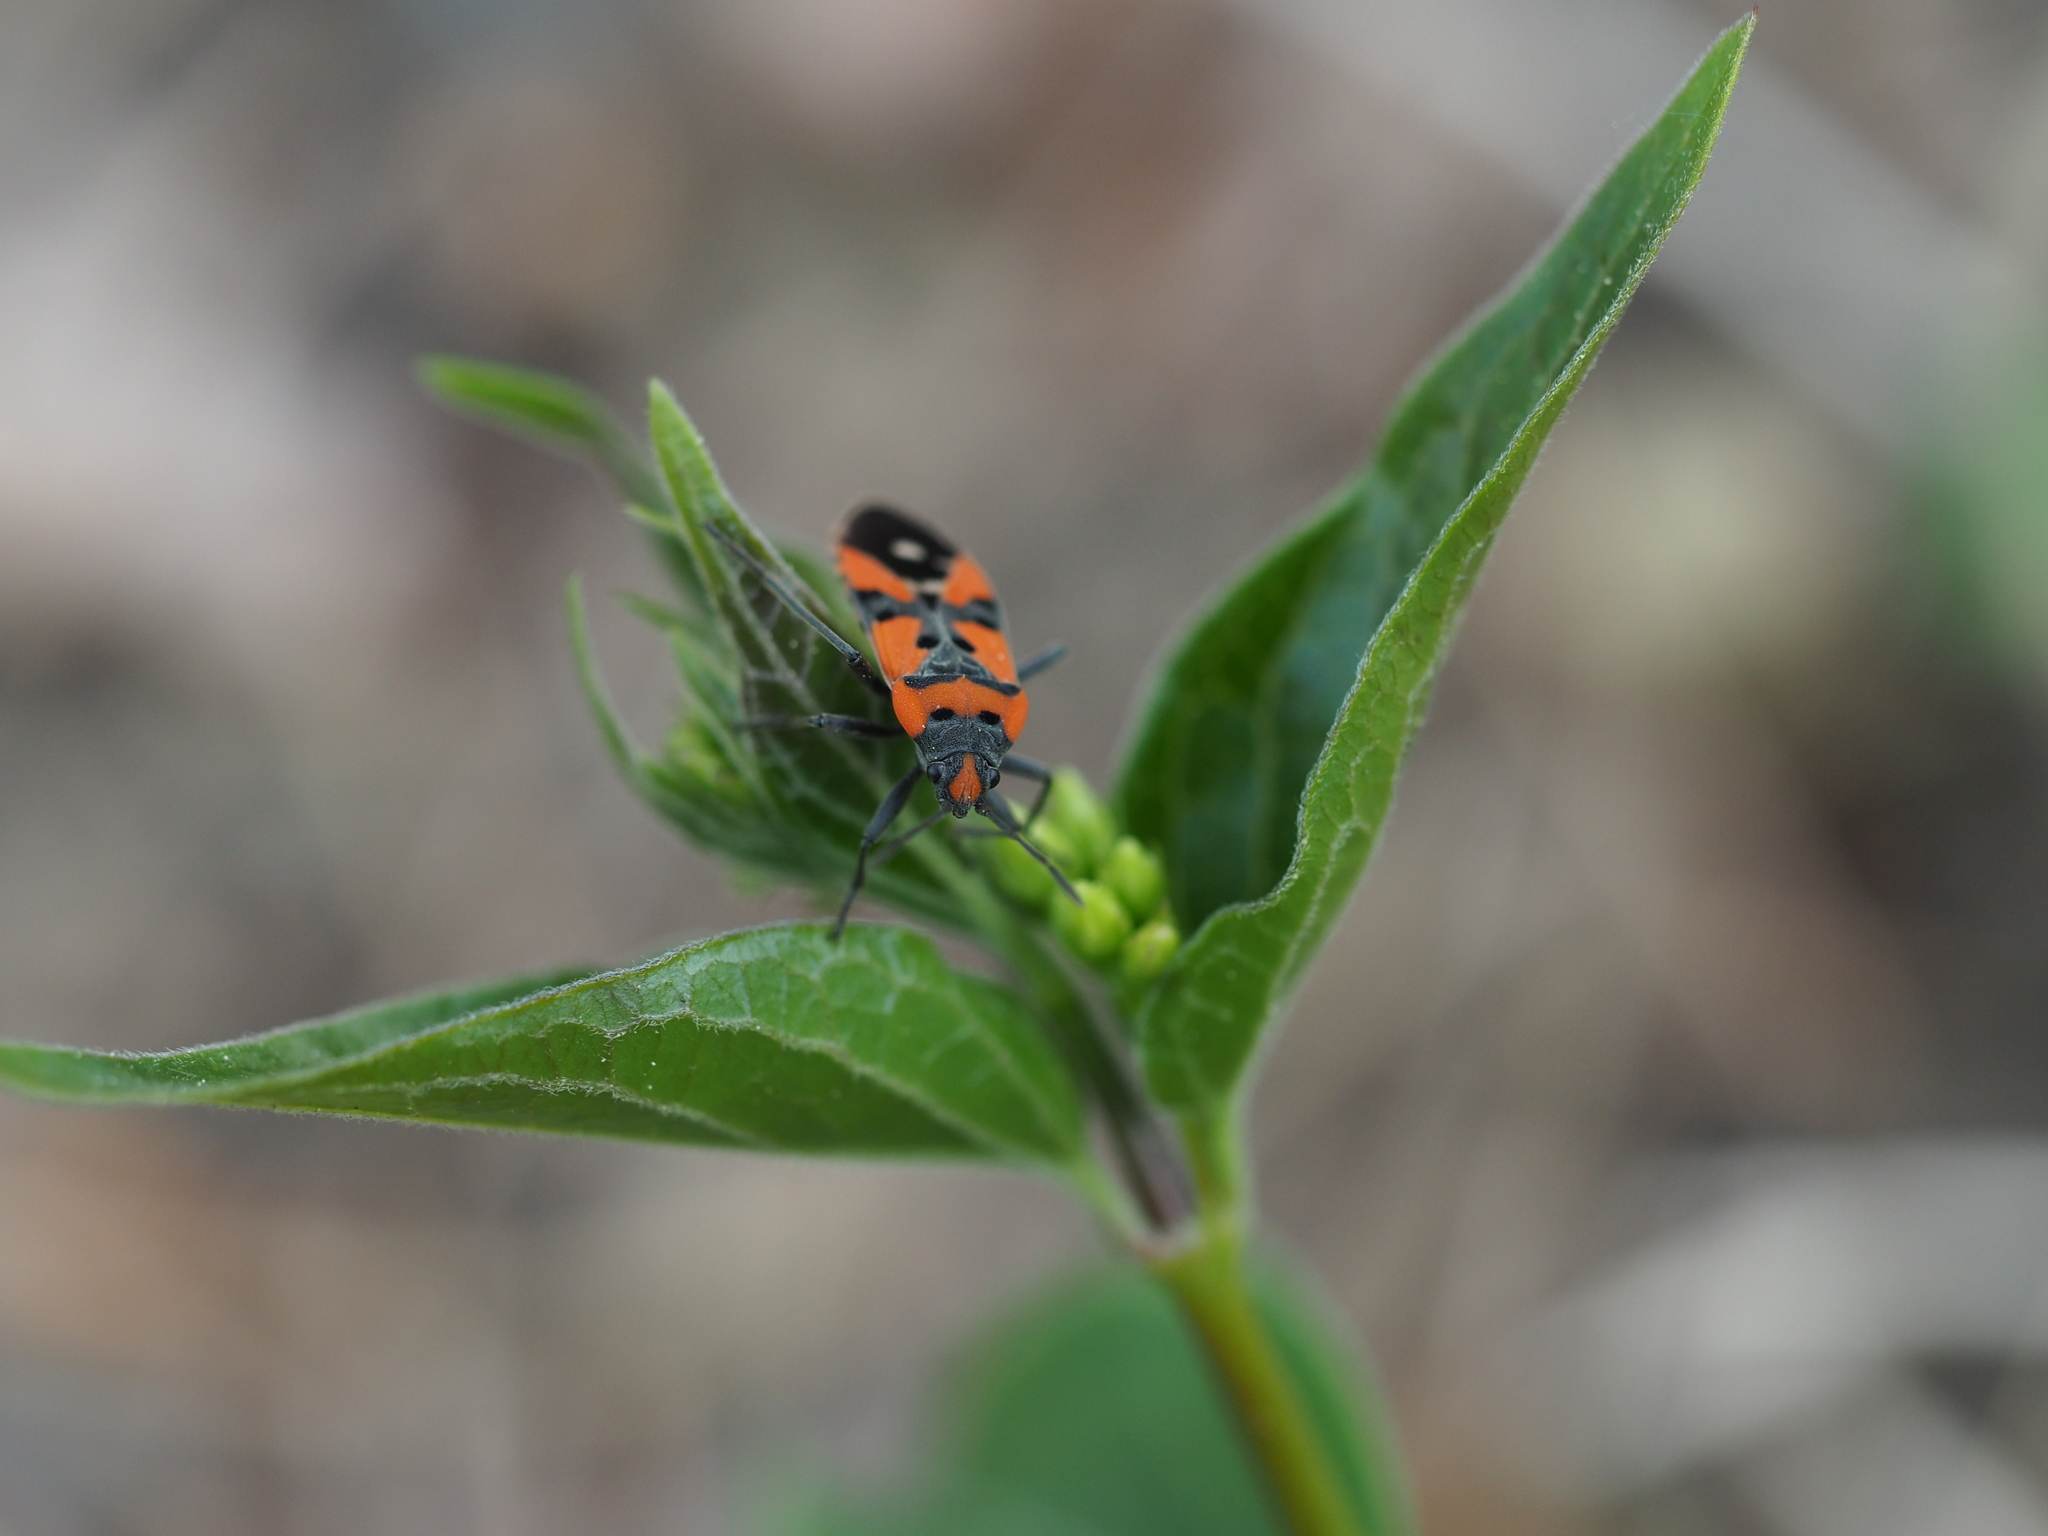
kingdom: Animalia
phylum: Arthropoda
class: Insecta
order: Hemiptera
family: Lygaeidae
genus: Lygaeus
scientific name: Lygaeus equestris
